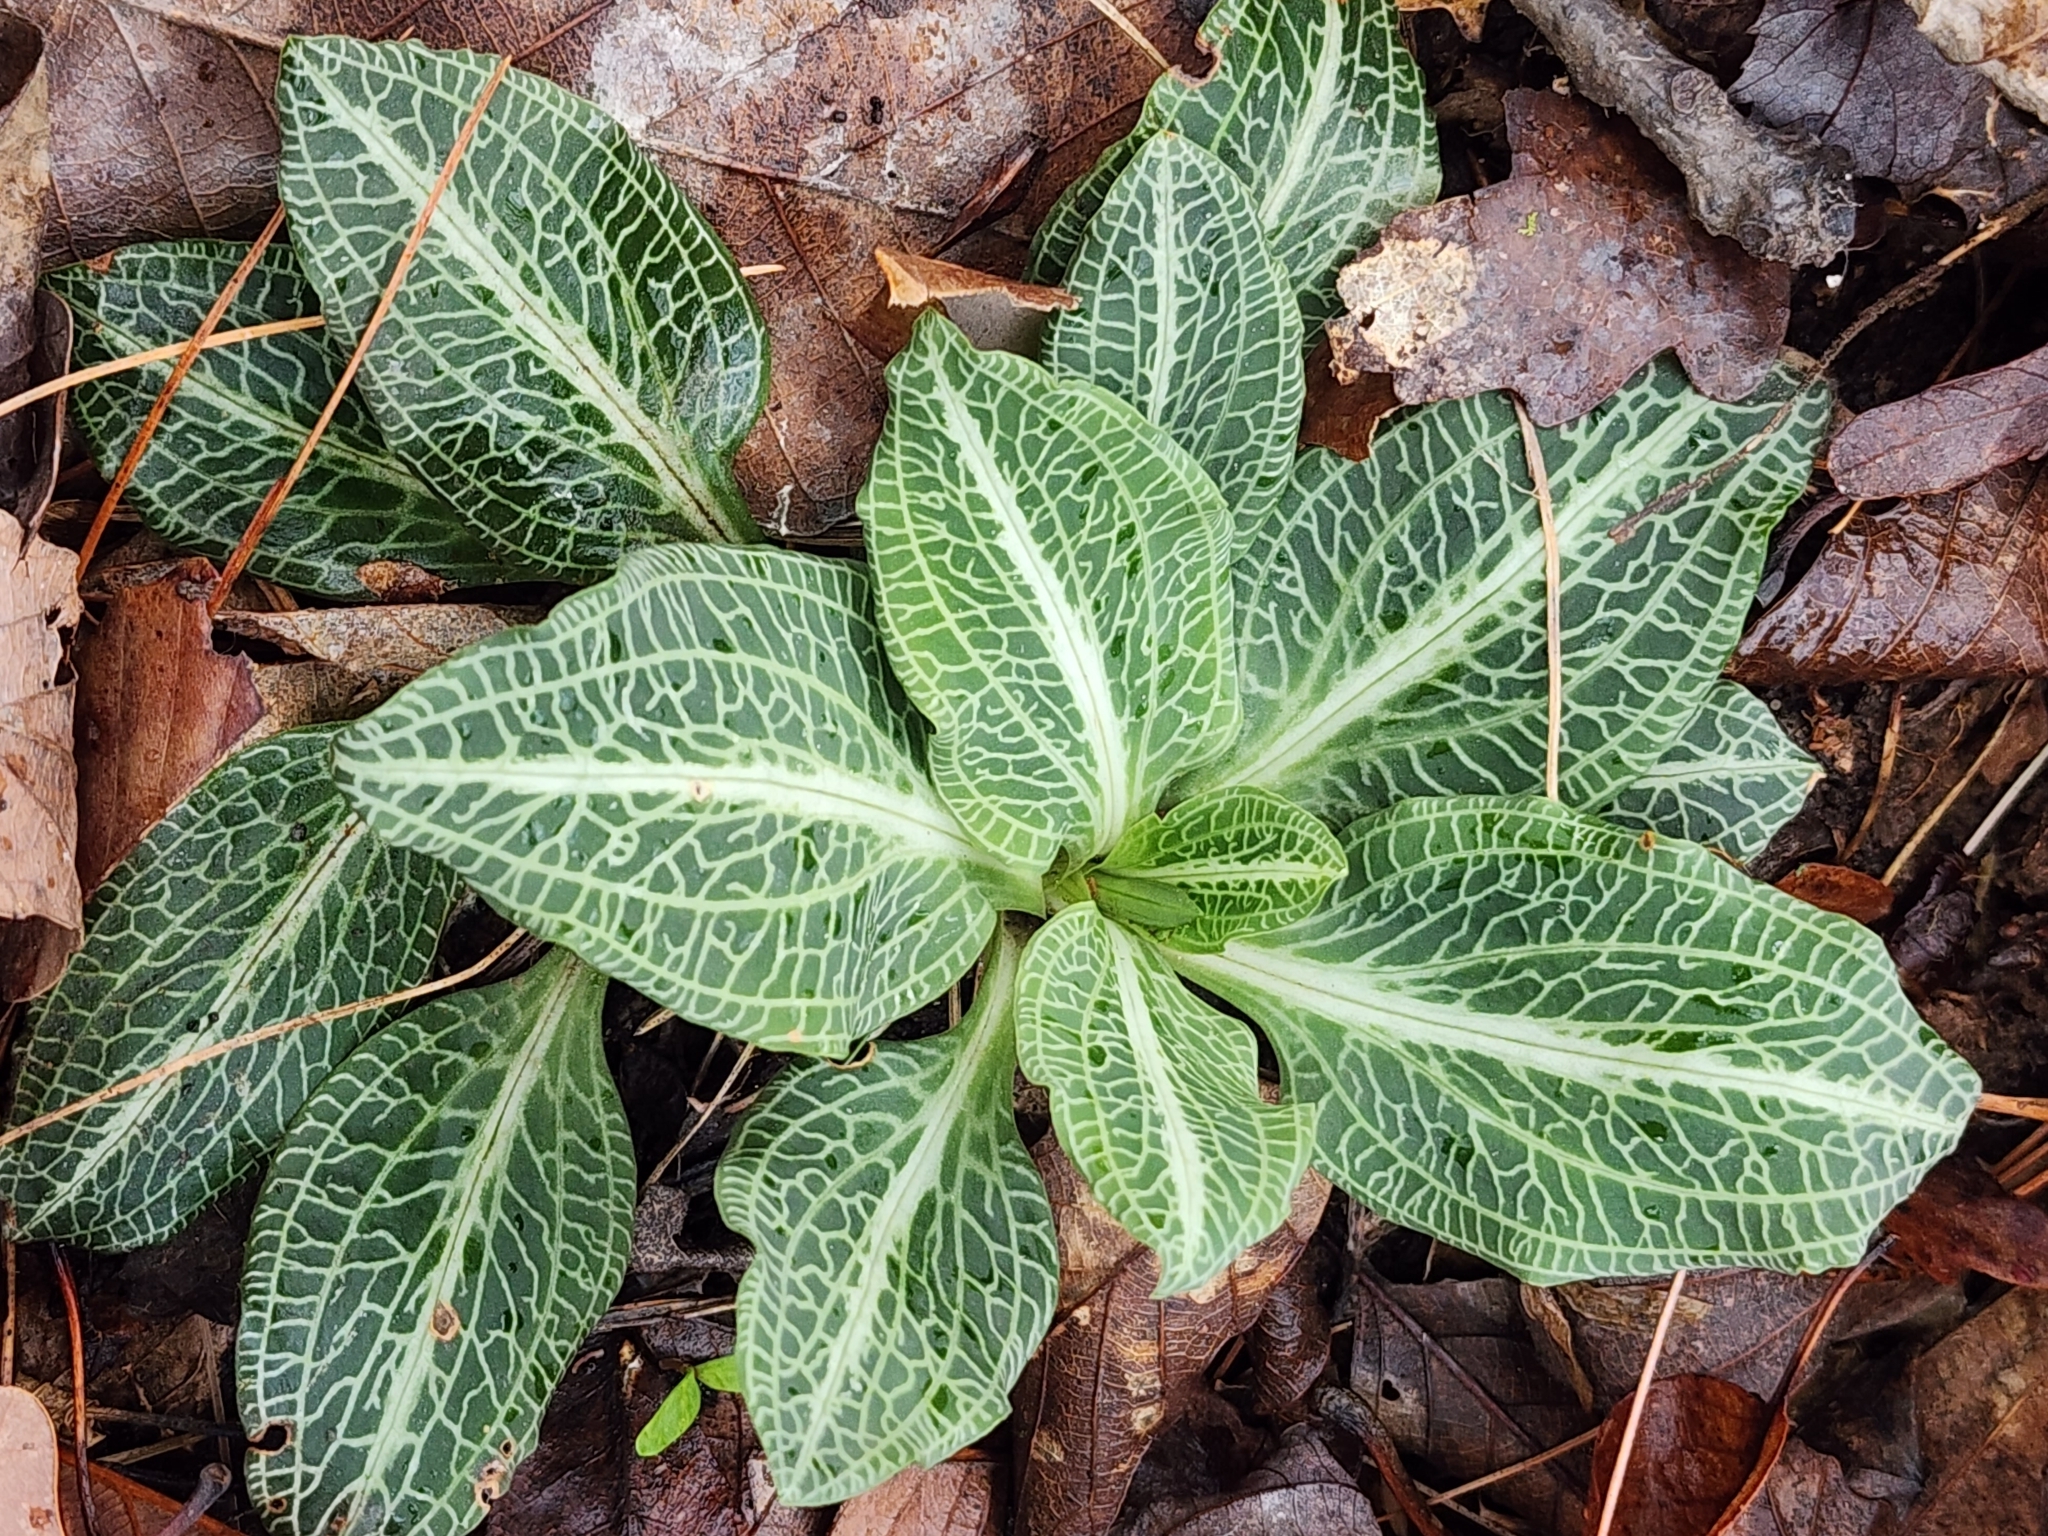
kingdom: Plantae
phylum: Tracheophyta
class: Liliopsida
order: Asparagales
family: Orchidaceae
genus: Goodyera
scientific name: Goodyera pubescens
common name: Downy rattlesnake-plantain
